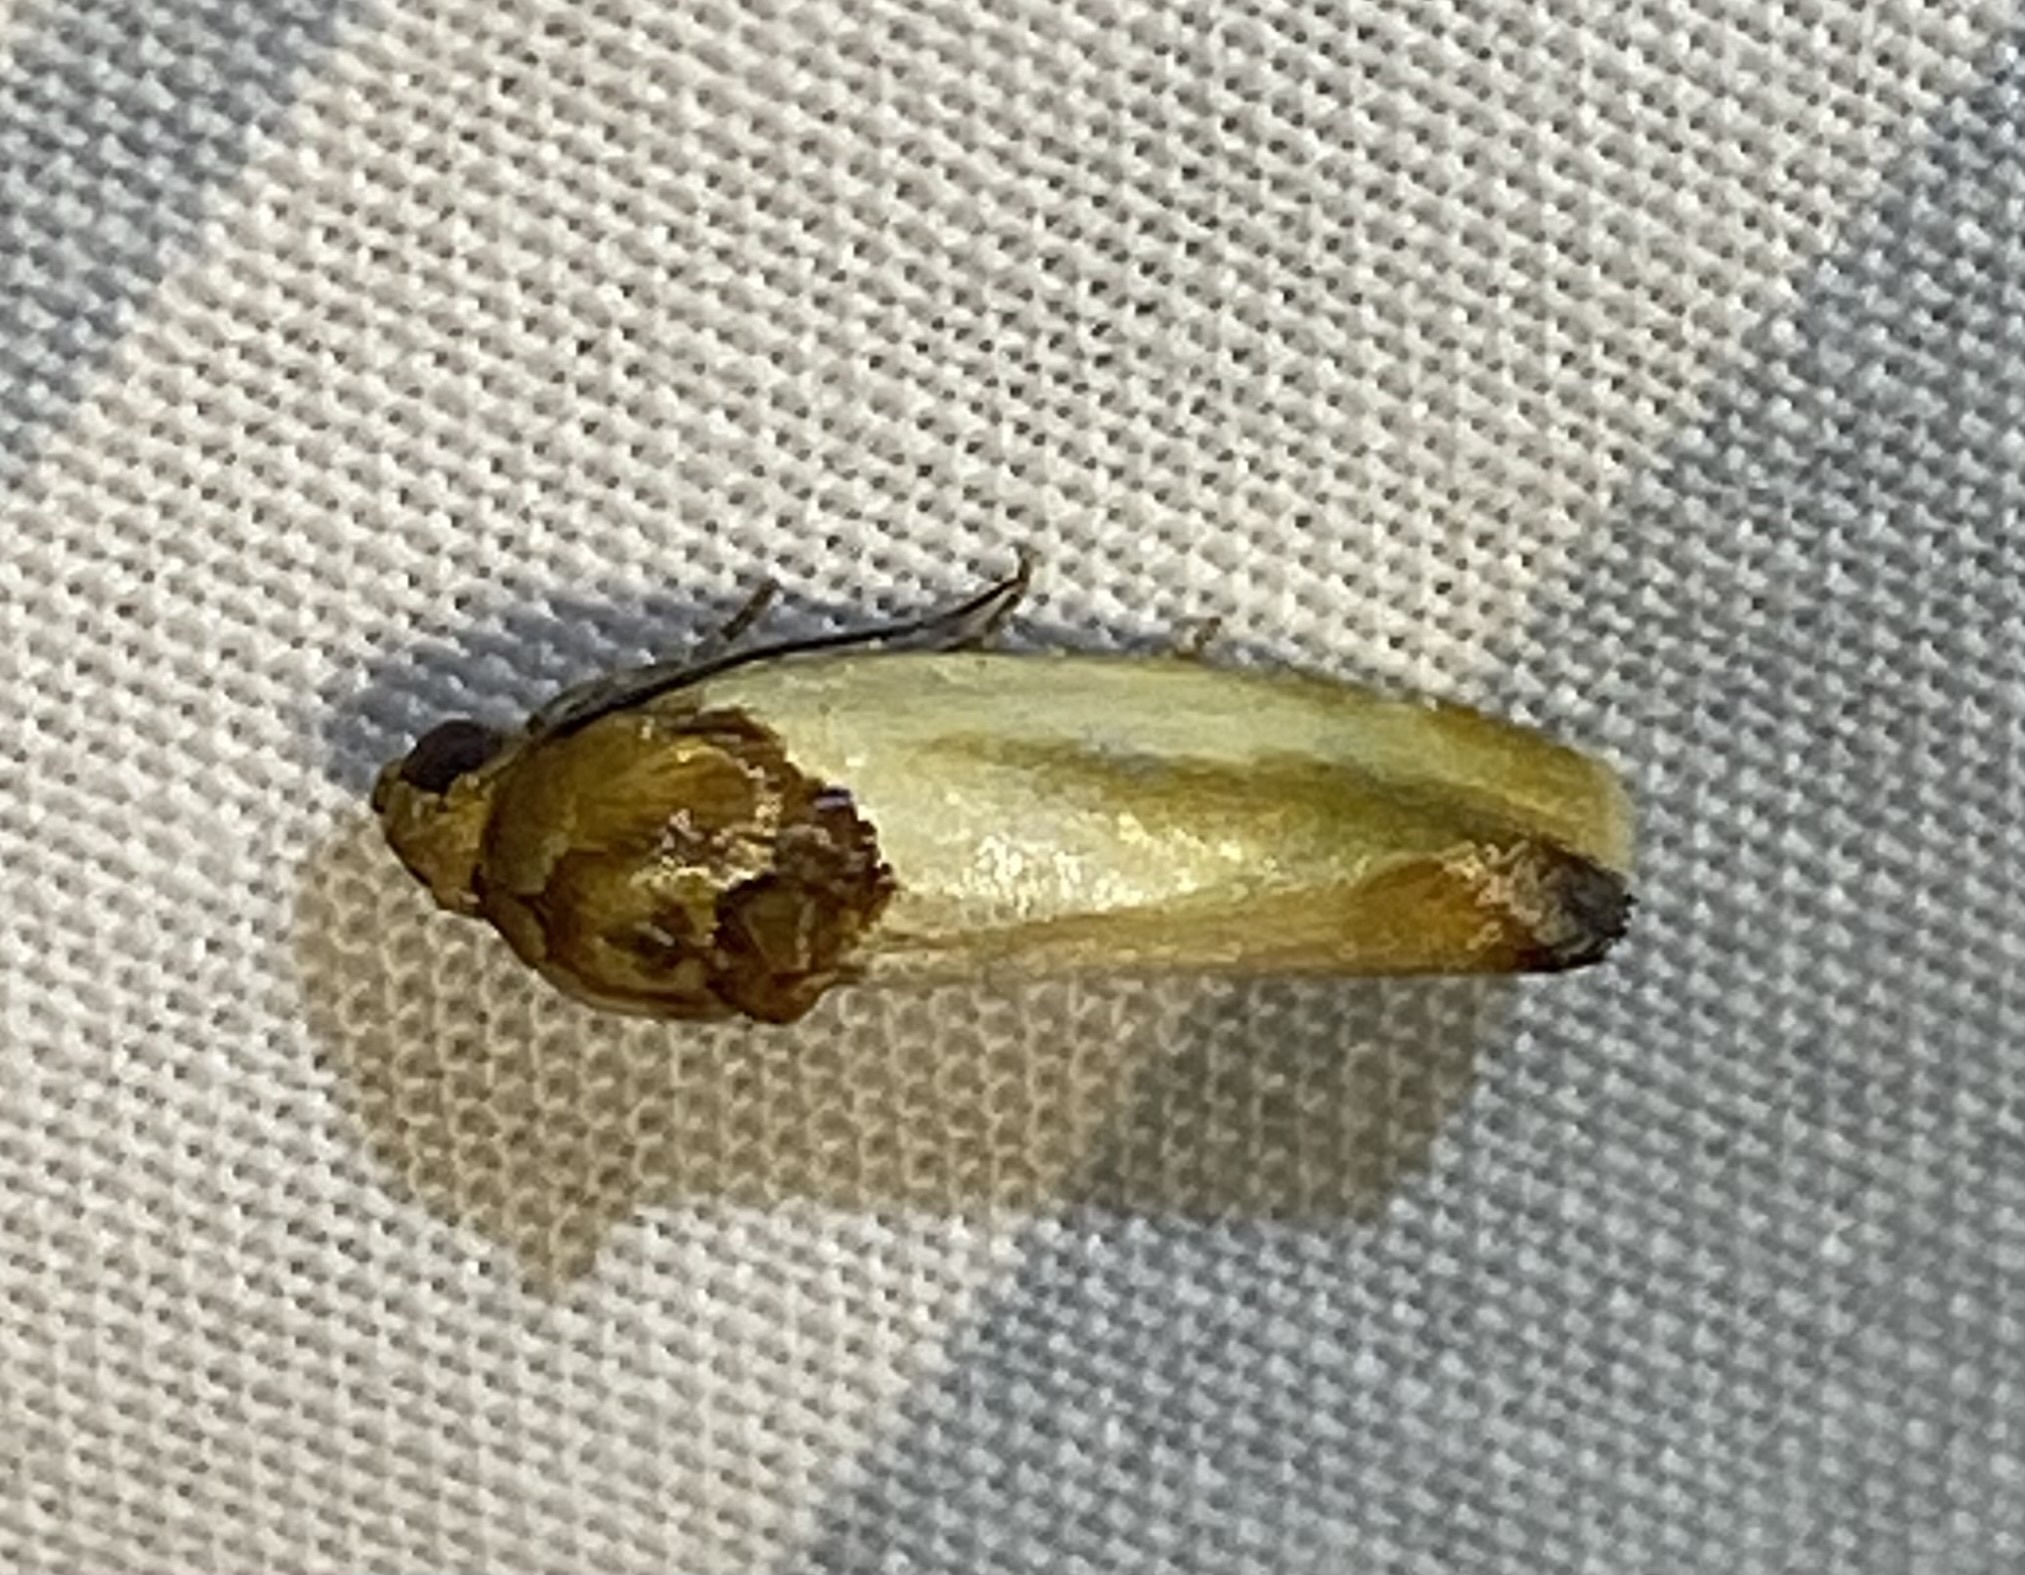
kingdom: Animalia
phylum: Arthropoda
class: Insecta
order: Lepidoptera
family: Noctuidae
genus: Spragueia
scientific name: Spragueia apicalis
